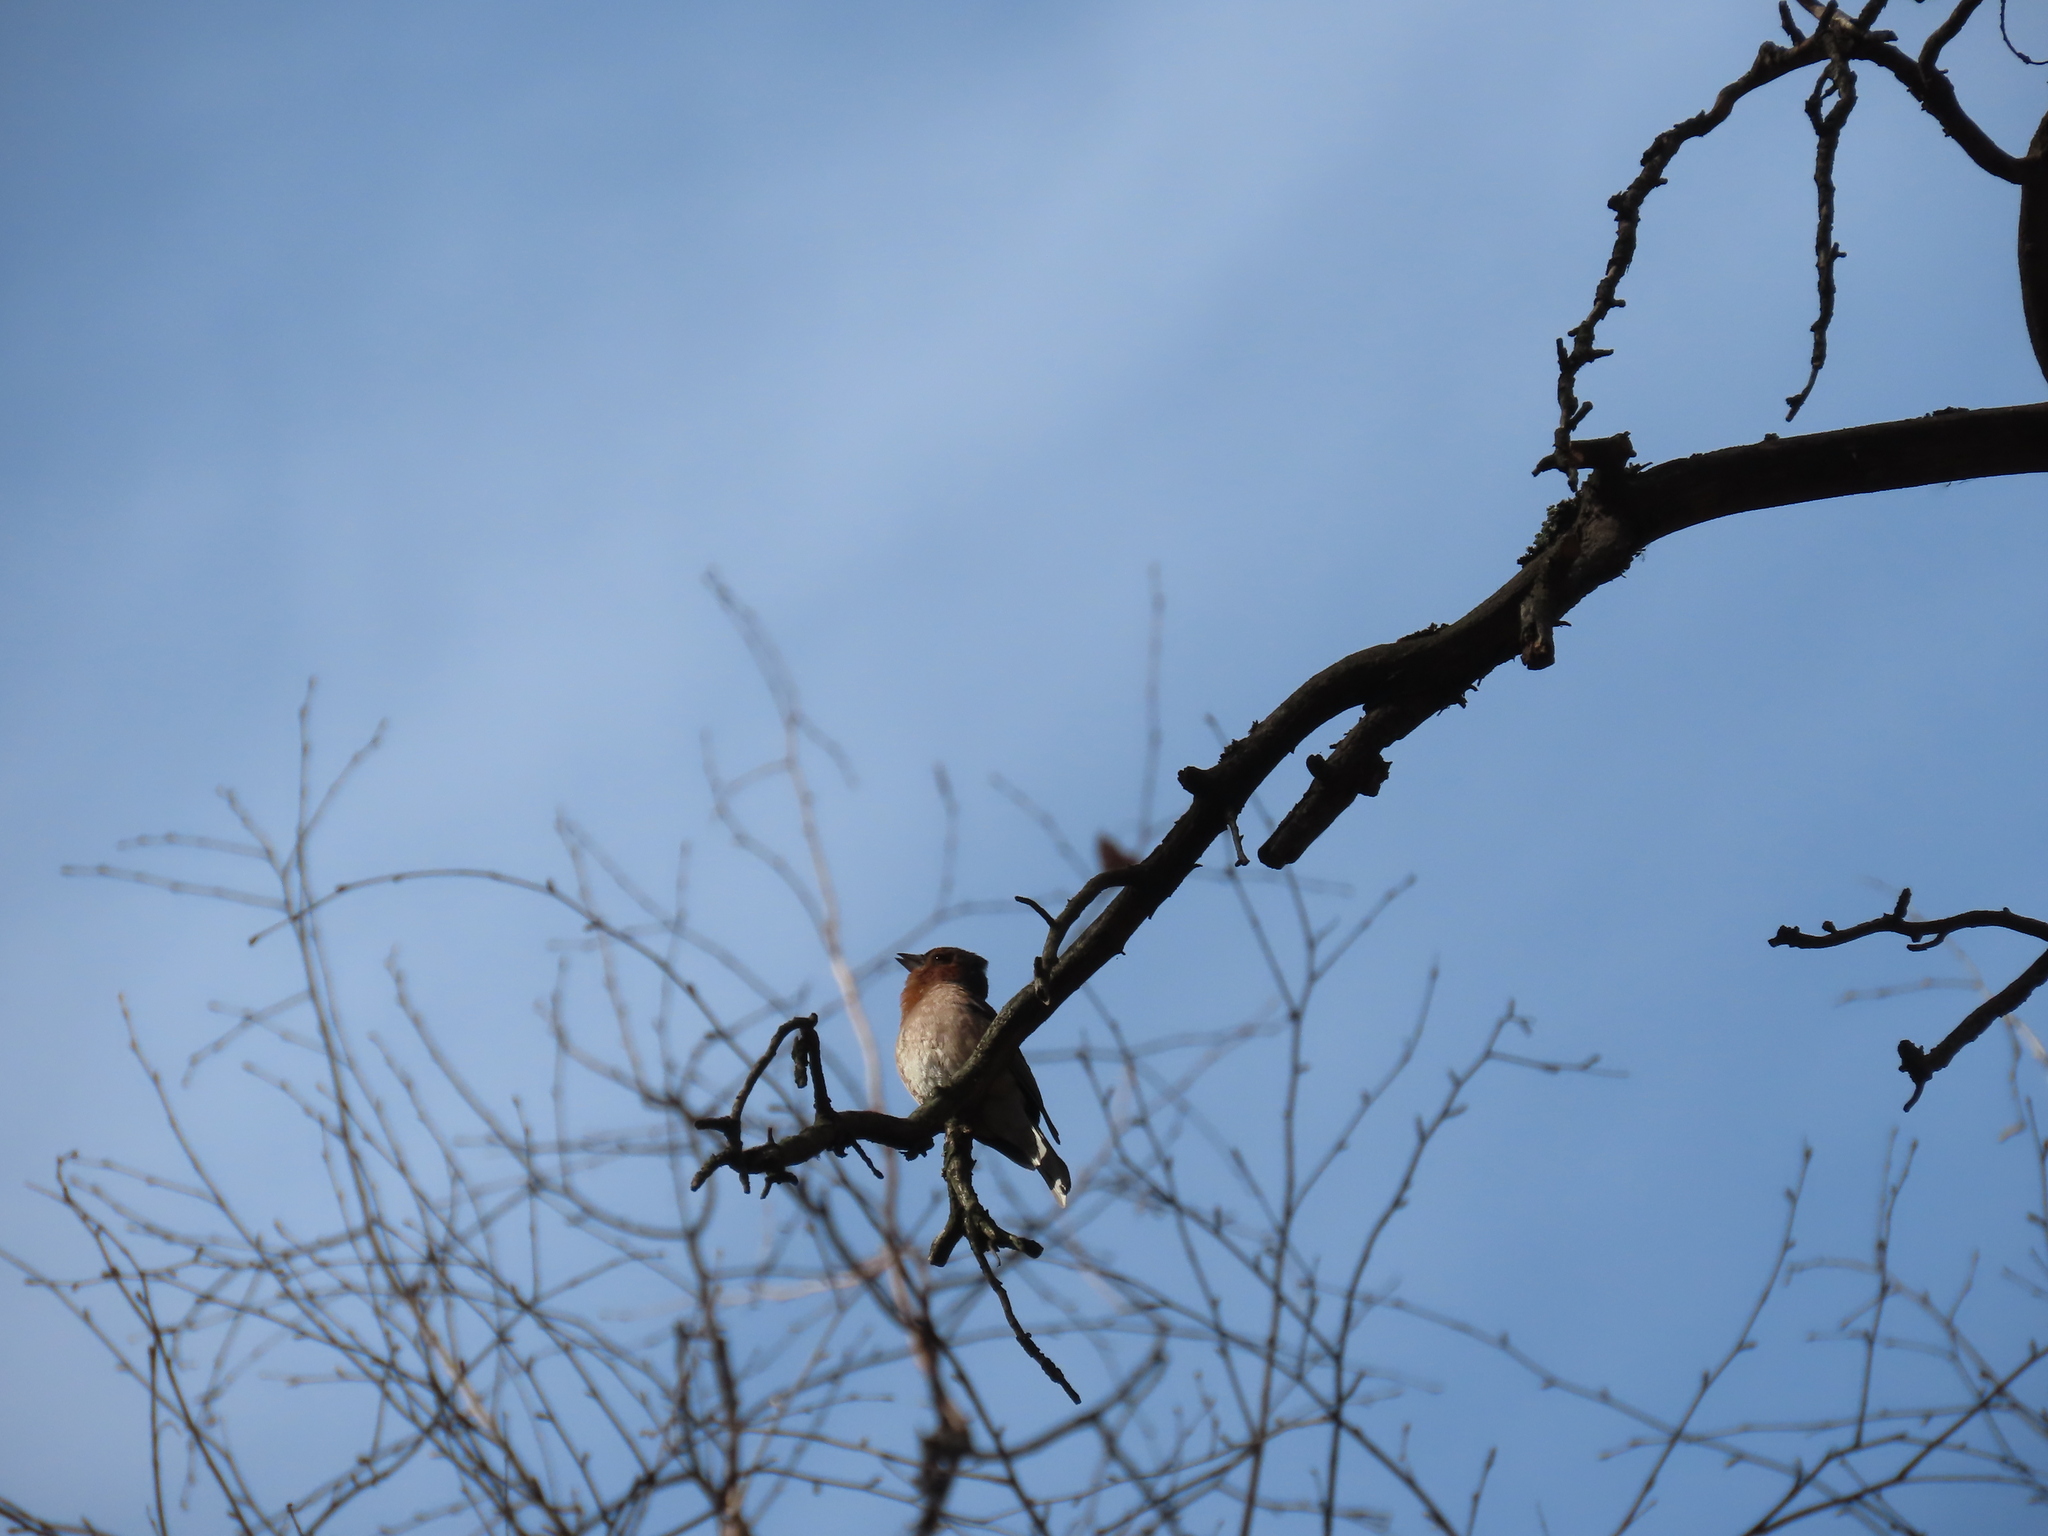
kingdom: Animalia
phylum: Chordata
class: Aves
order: Passeriformes
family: Fringillidae
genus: Fringilla
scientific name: Fringilla coelebs
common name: Common chaffinch
